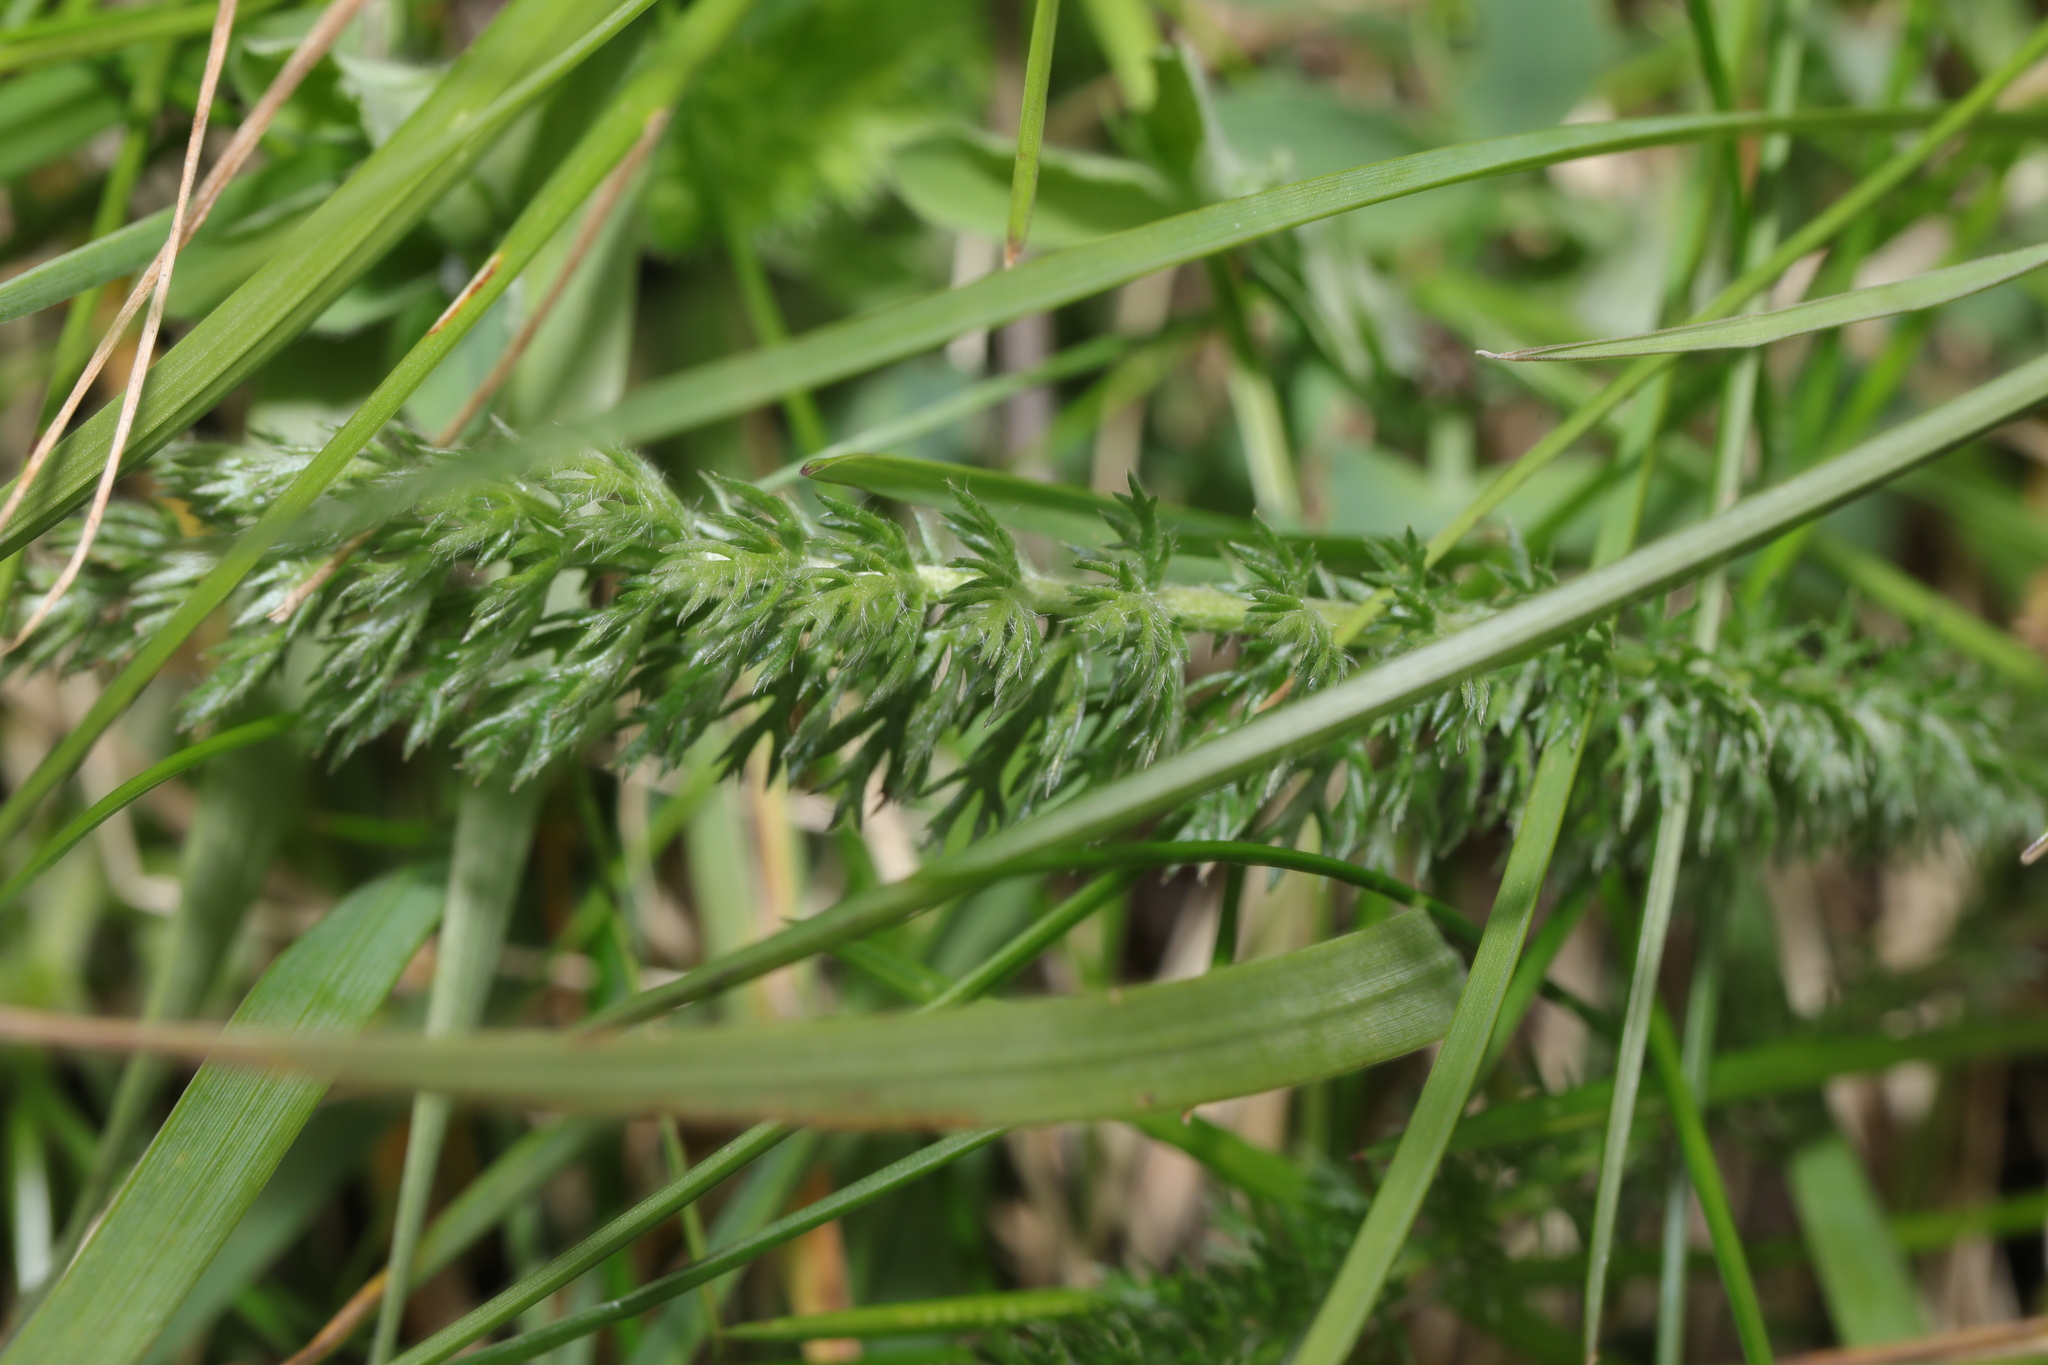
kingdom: Plantae
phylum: Tracheophyta
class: Magnoliopsida
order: Asterales
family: Asteraceae
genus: Achillea
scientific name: Achillea millefolium
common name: Yarrow
